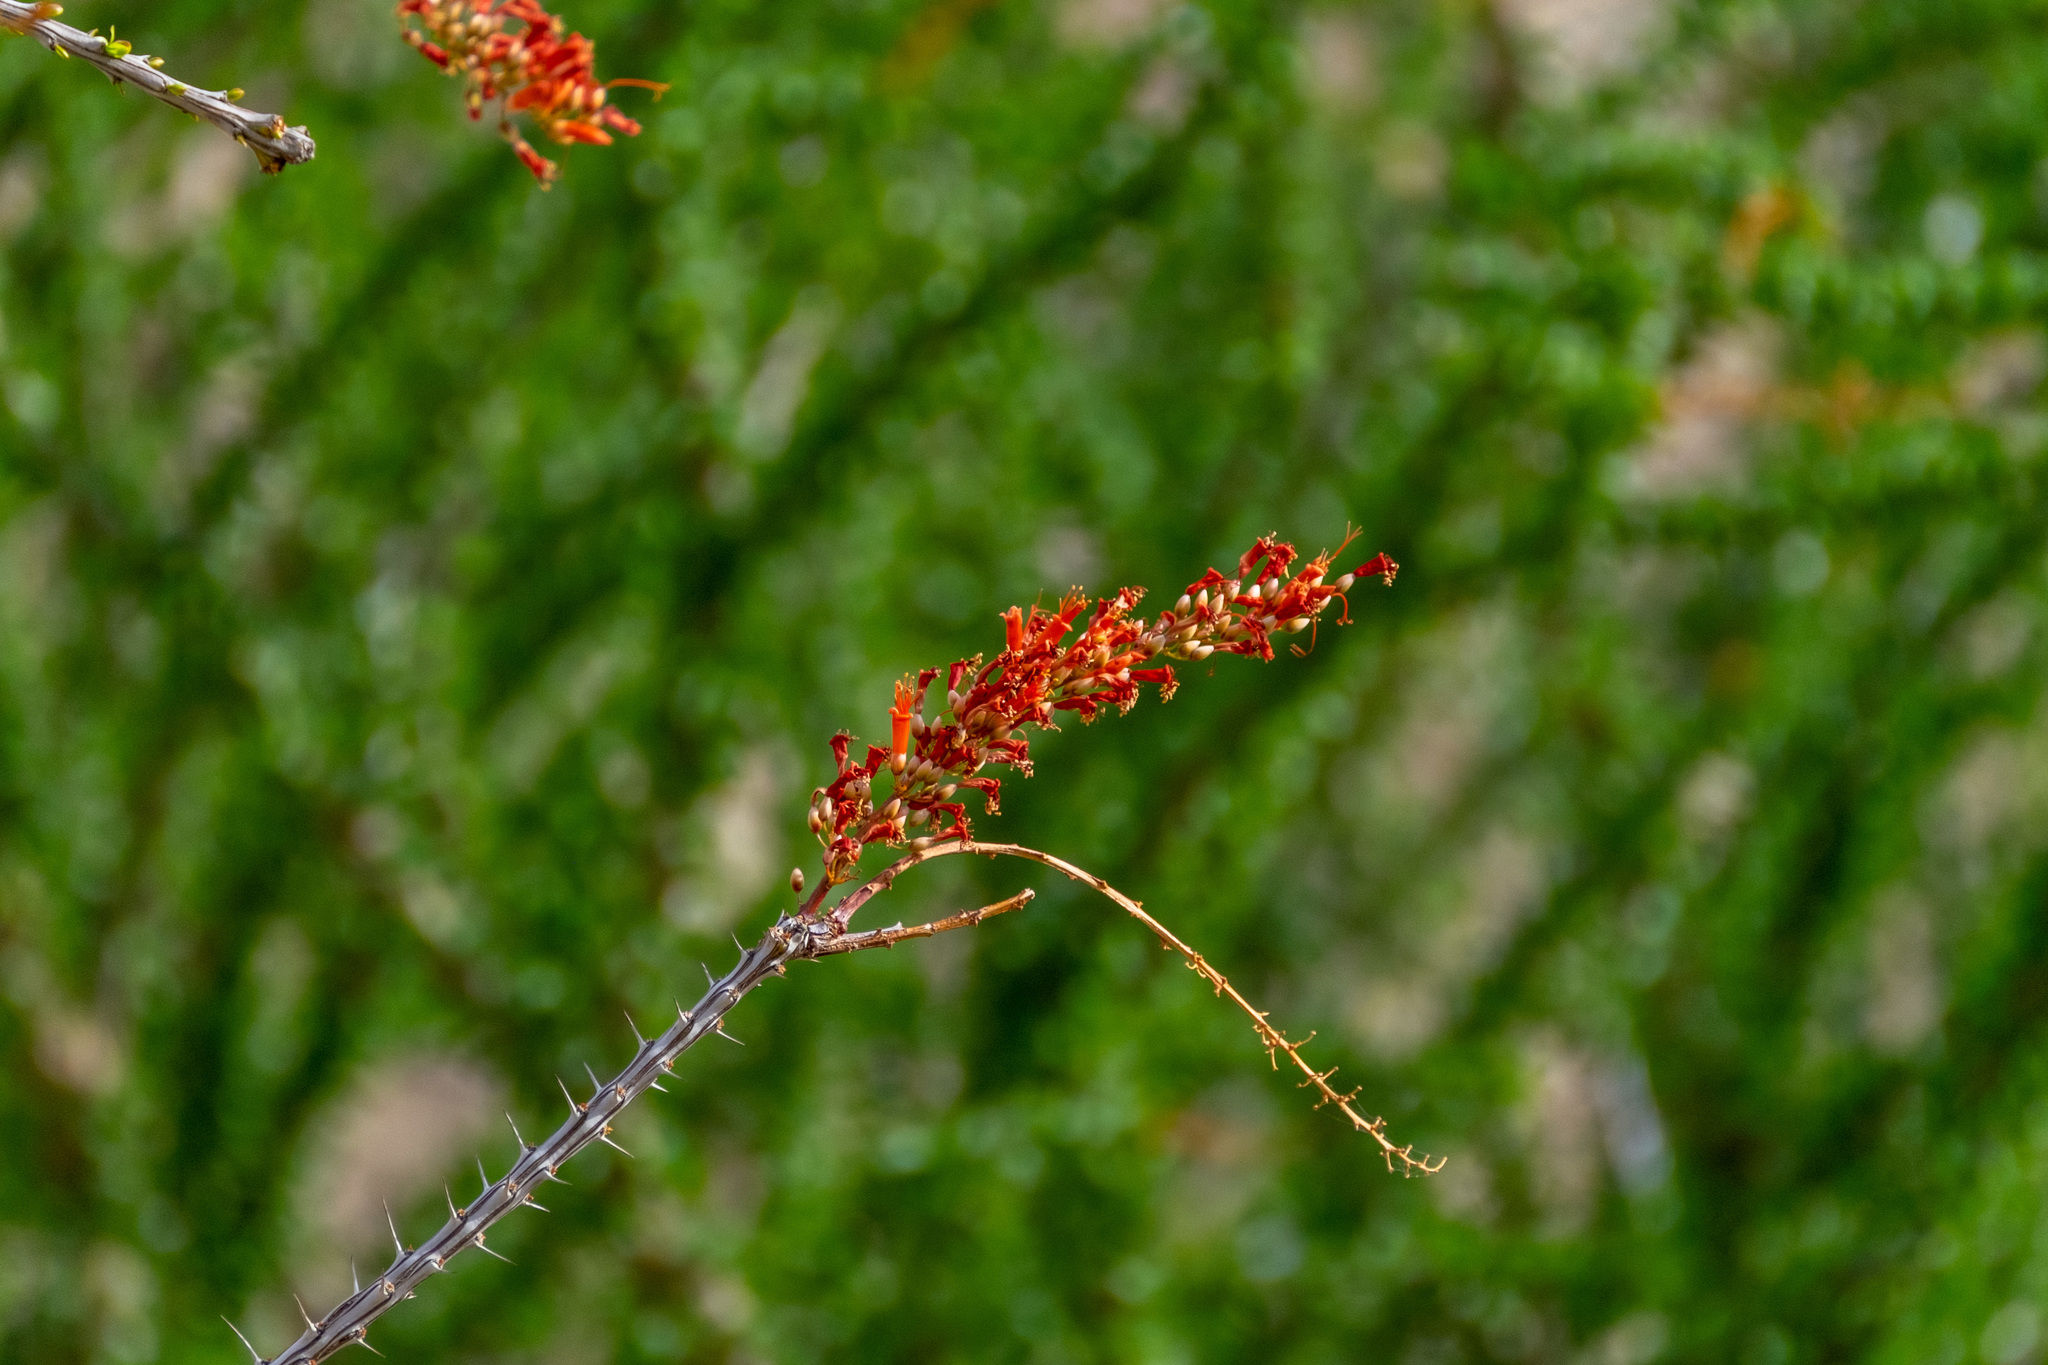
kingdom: Plantae
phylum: Tracheophyta
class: Magnoliopsida
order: Ericales
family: Fouquieriaceae
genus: Fouquieria
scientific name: Fouquieria splendens
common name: Vine-cactus
